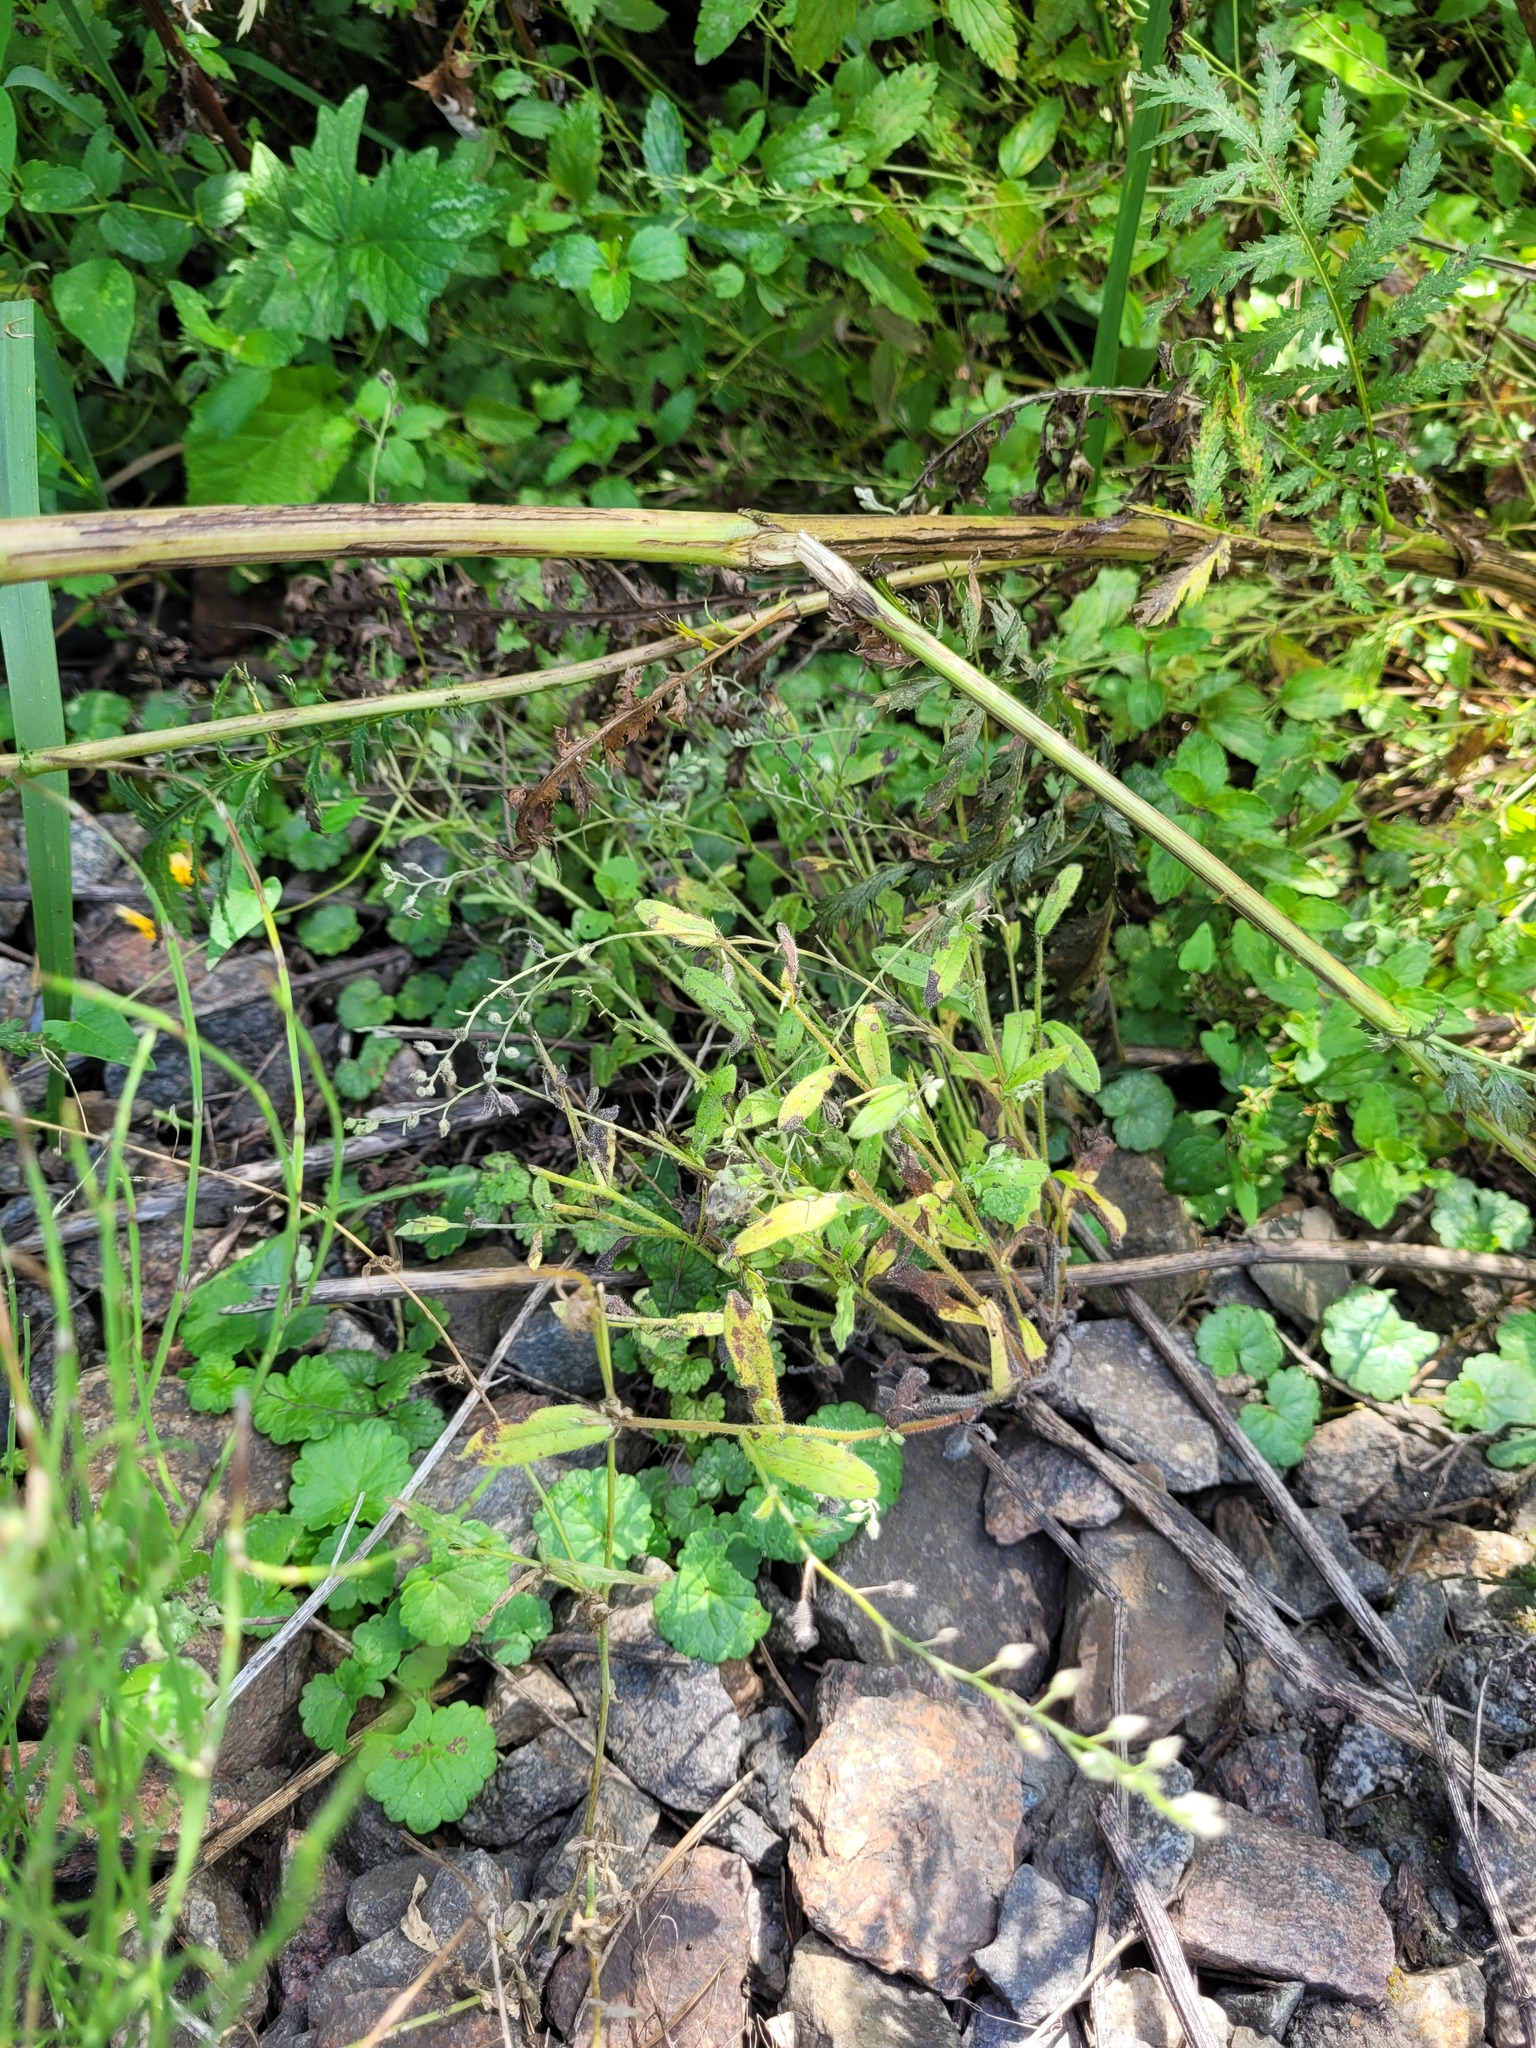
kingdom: Plantae
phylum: Tracheophyta
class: Magnoliopsida
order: Boraginales
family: Boraginaceae
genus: Myosotis
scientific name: Myosotis arvensis
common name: Field forget-me-not
